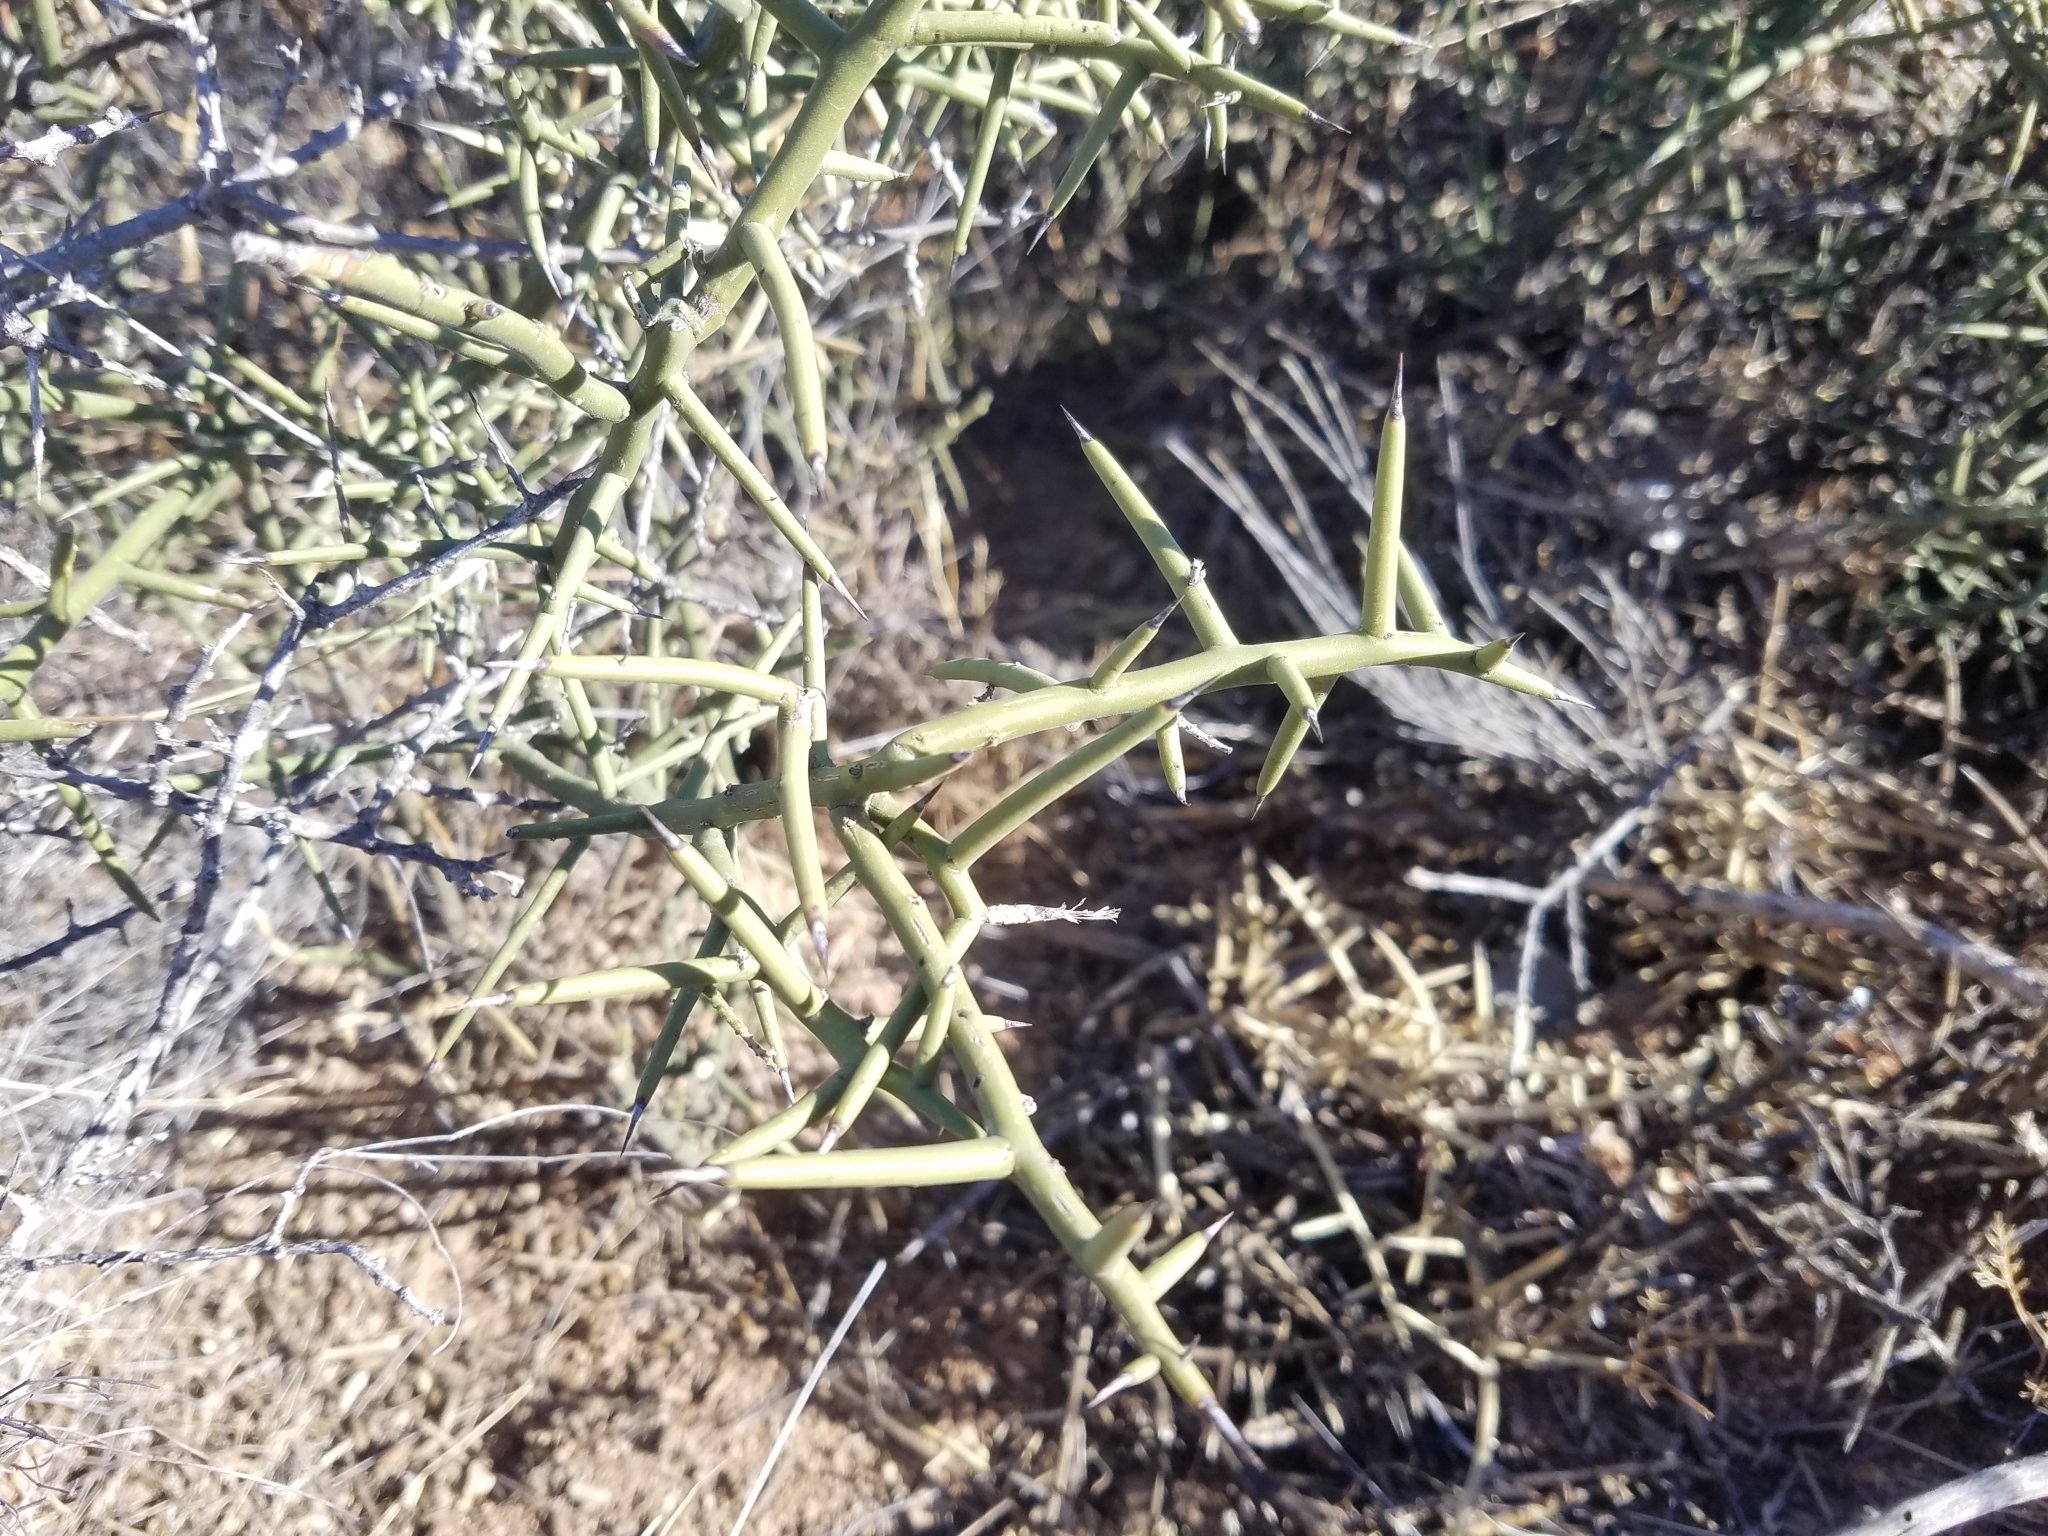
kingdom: Plantae
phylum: Tracheophyta
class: Magnoliopsida
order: Brassicales
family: Koeberliniaceae
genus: Koeberlinia
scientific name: Koeberlinia spinosa
